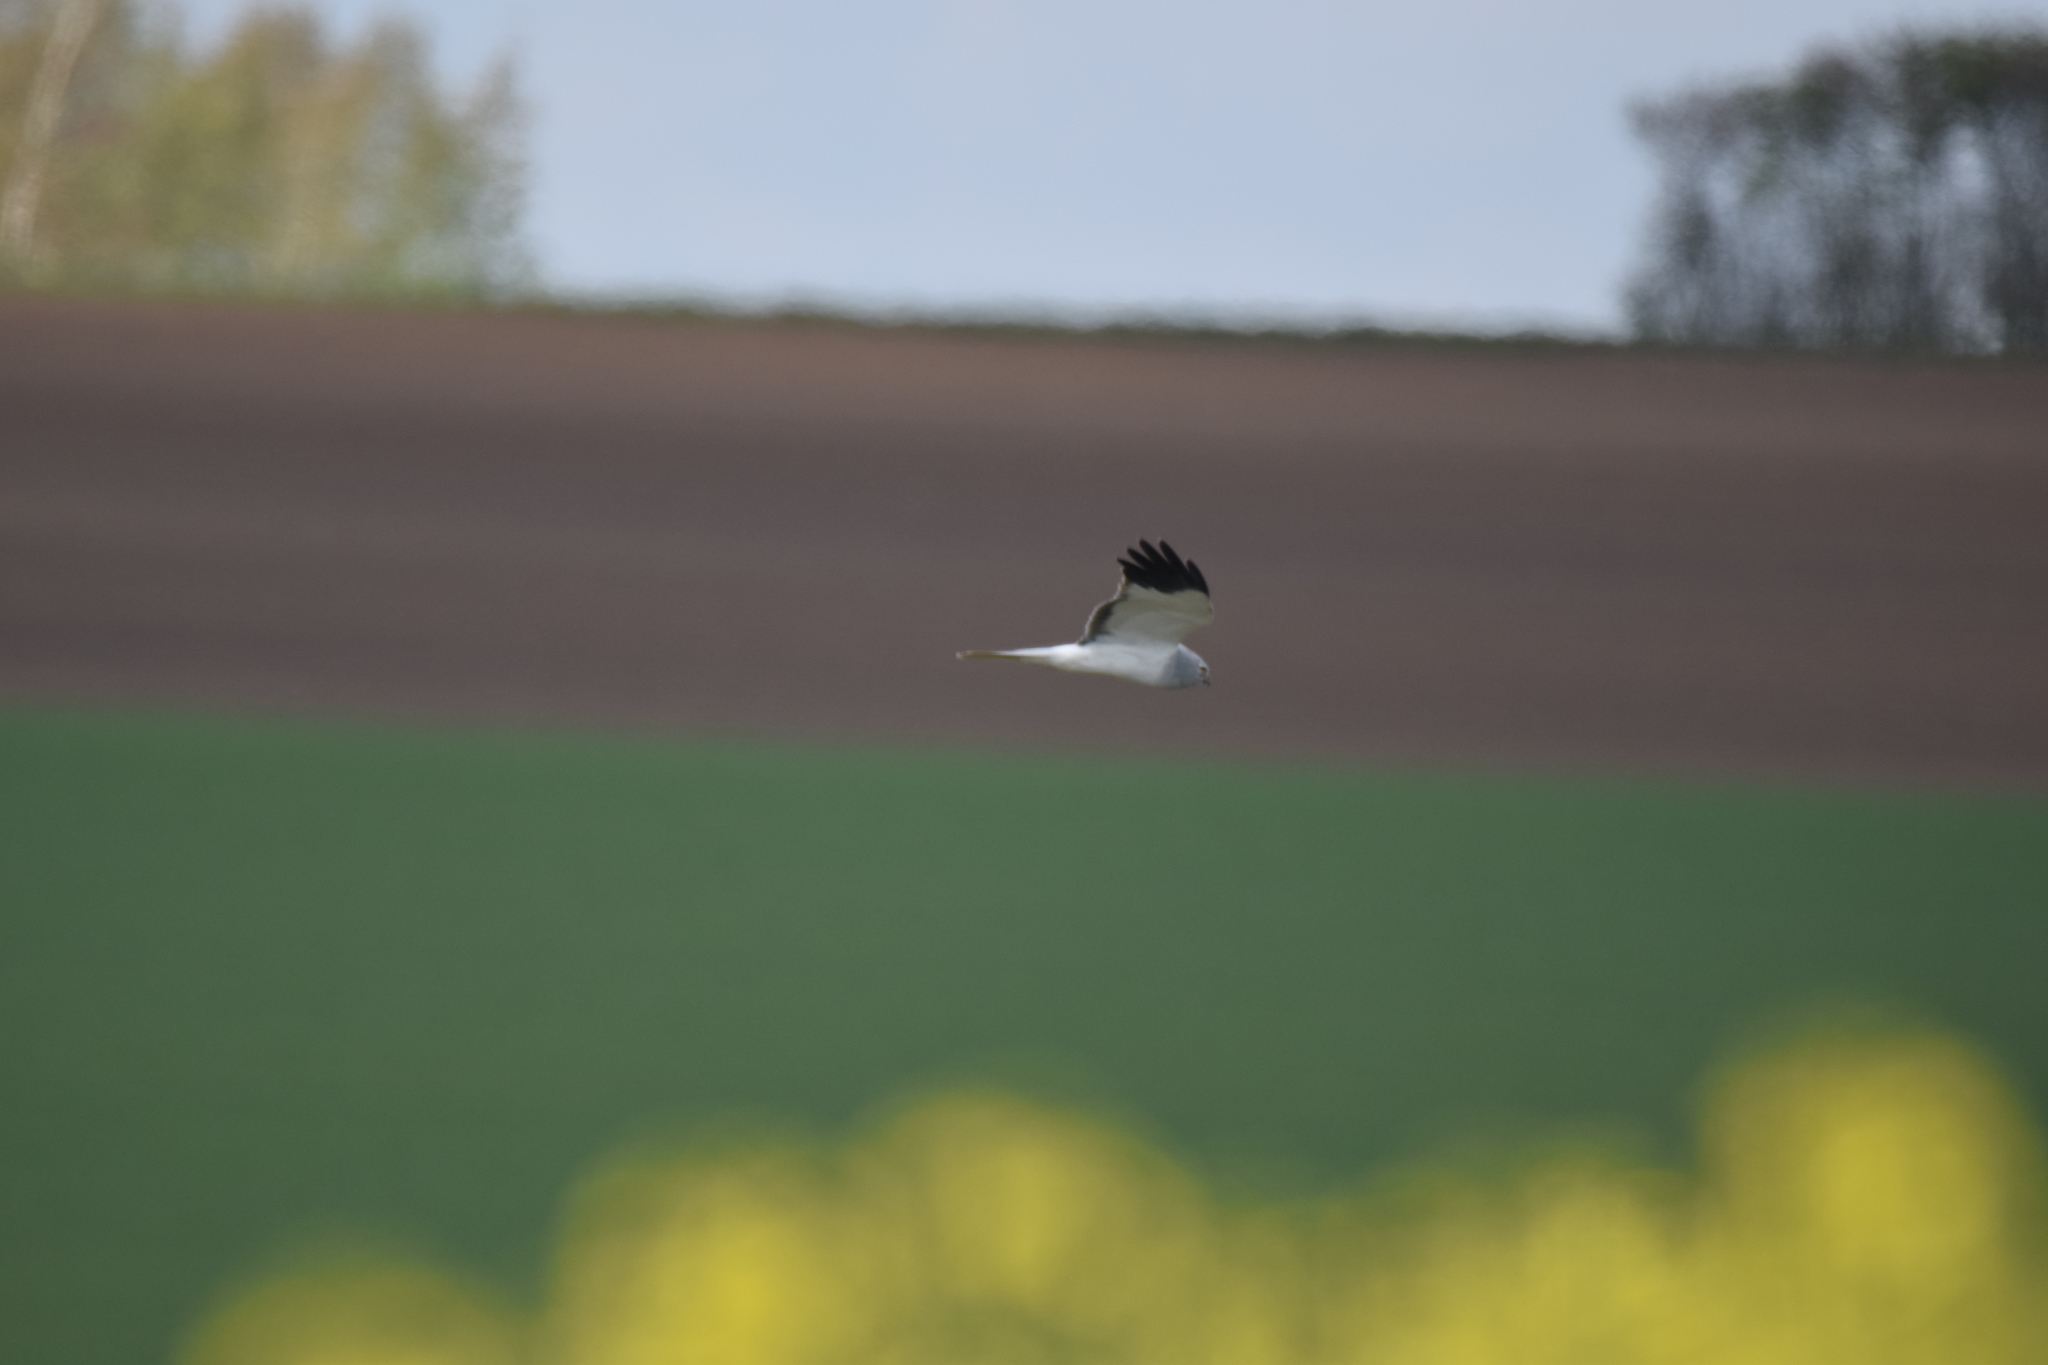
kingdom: Animalia
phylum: Chordata
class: Aves
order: Accipitriformes
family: Accipitridae
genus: Circus
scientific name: Circus cyaneus
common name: Hen harrier
